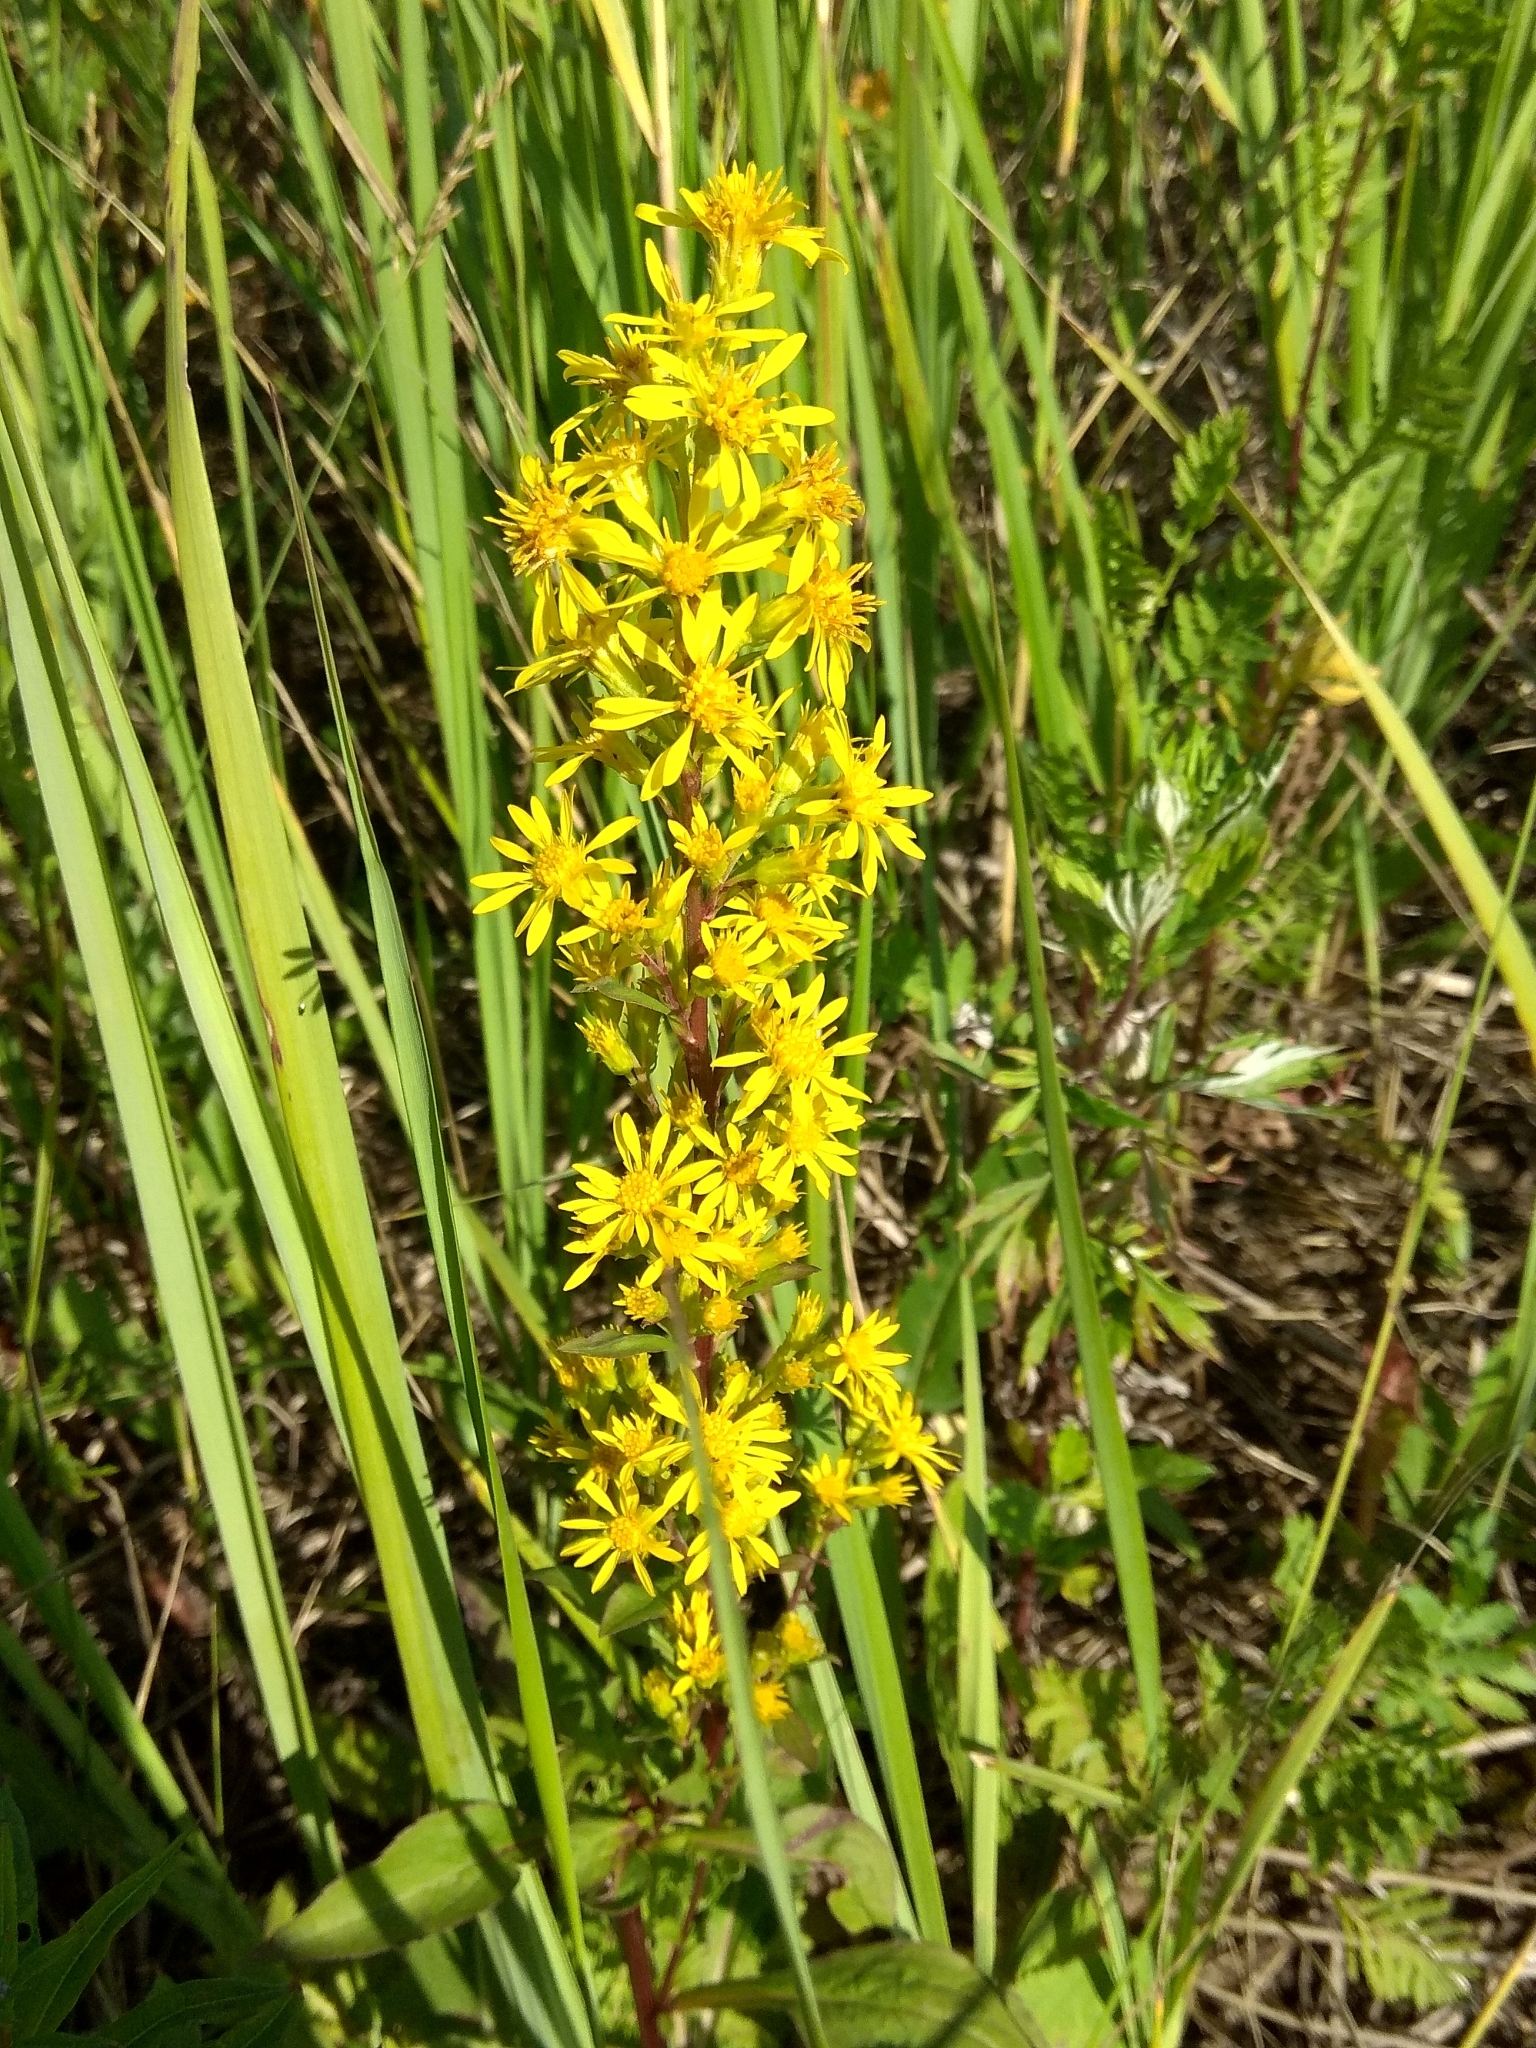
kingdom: Plantae
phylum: Tracheophyta
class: Magnoliopsida
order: Asterales
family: Asteraceae
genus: Solidago
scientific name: Solidago virgaurea
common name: Goldenrod
